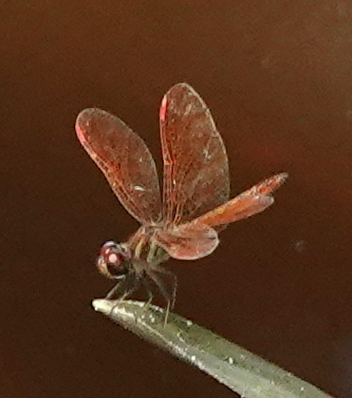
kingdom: Animalia
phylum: Arthropoda
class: Insecta
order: Odonata
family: Libellulidae
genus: Perithemis
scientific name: Perithemis domitia
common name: Slough amberwing
